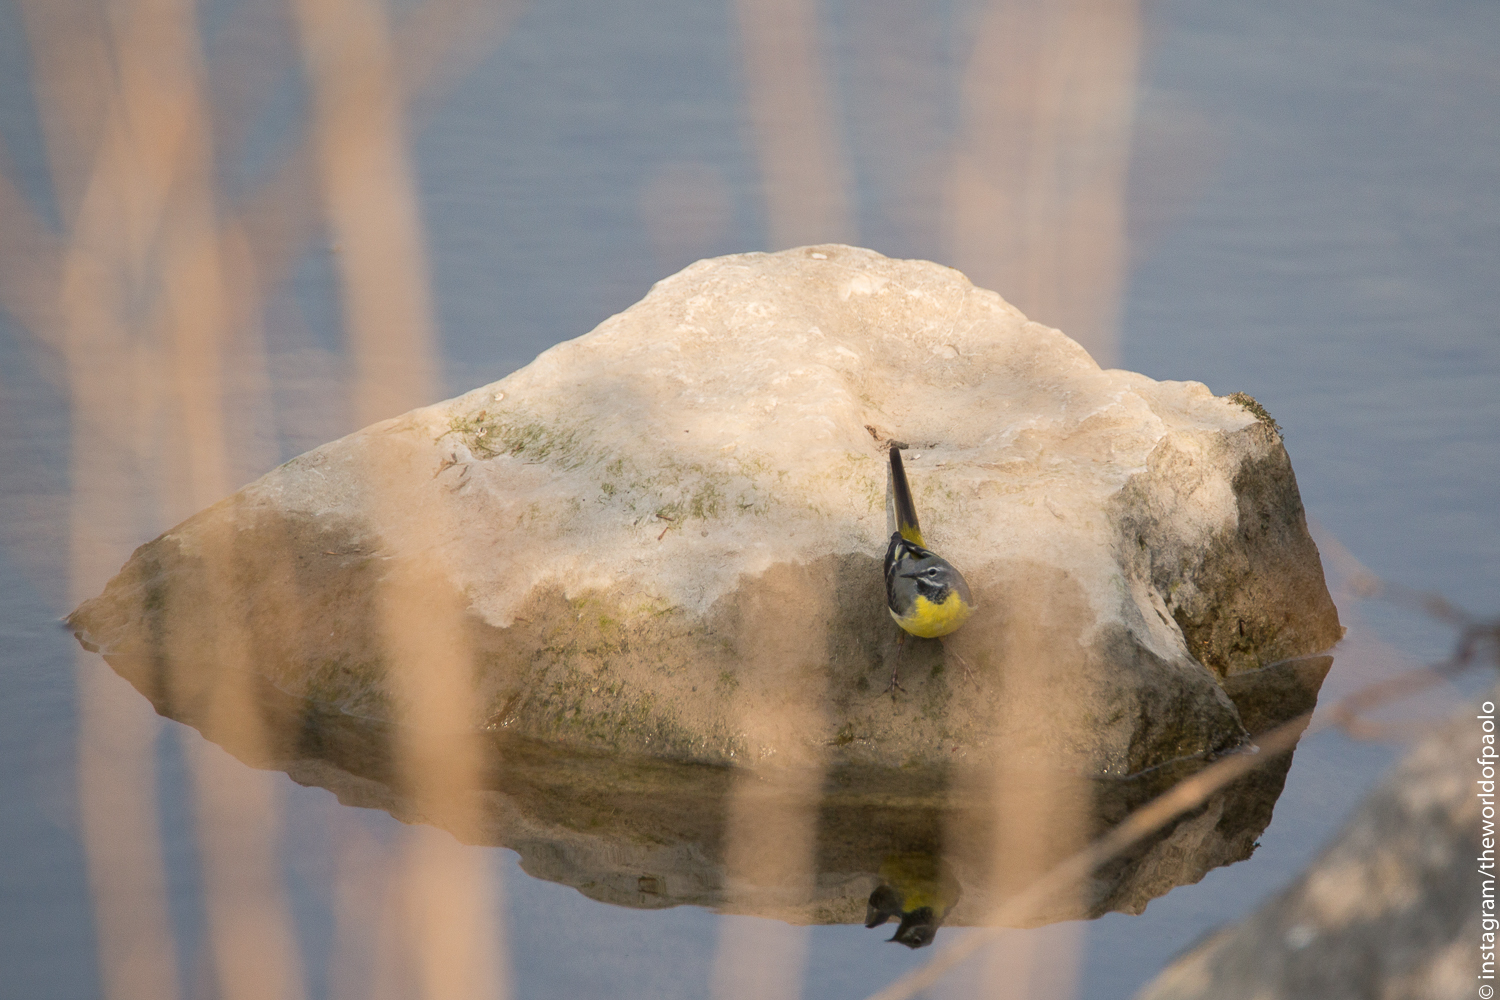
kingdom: Animalia
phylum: Chordata
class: Aves
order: Passeriformes
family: Motacillidae
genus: Motacilla
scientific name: Motacilla cinerea
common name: Grey wagtail
